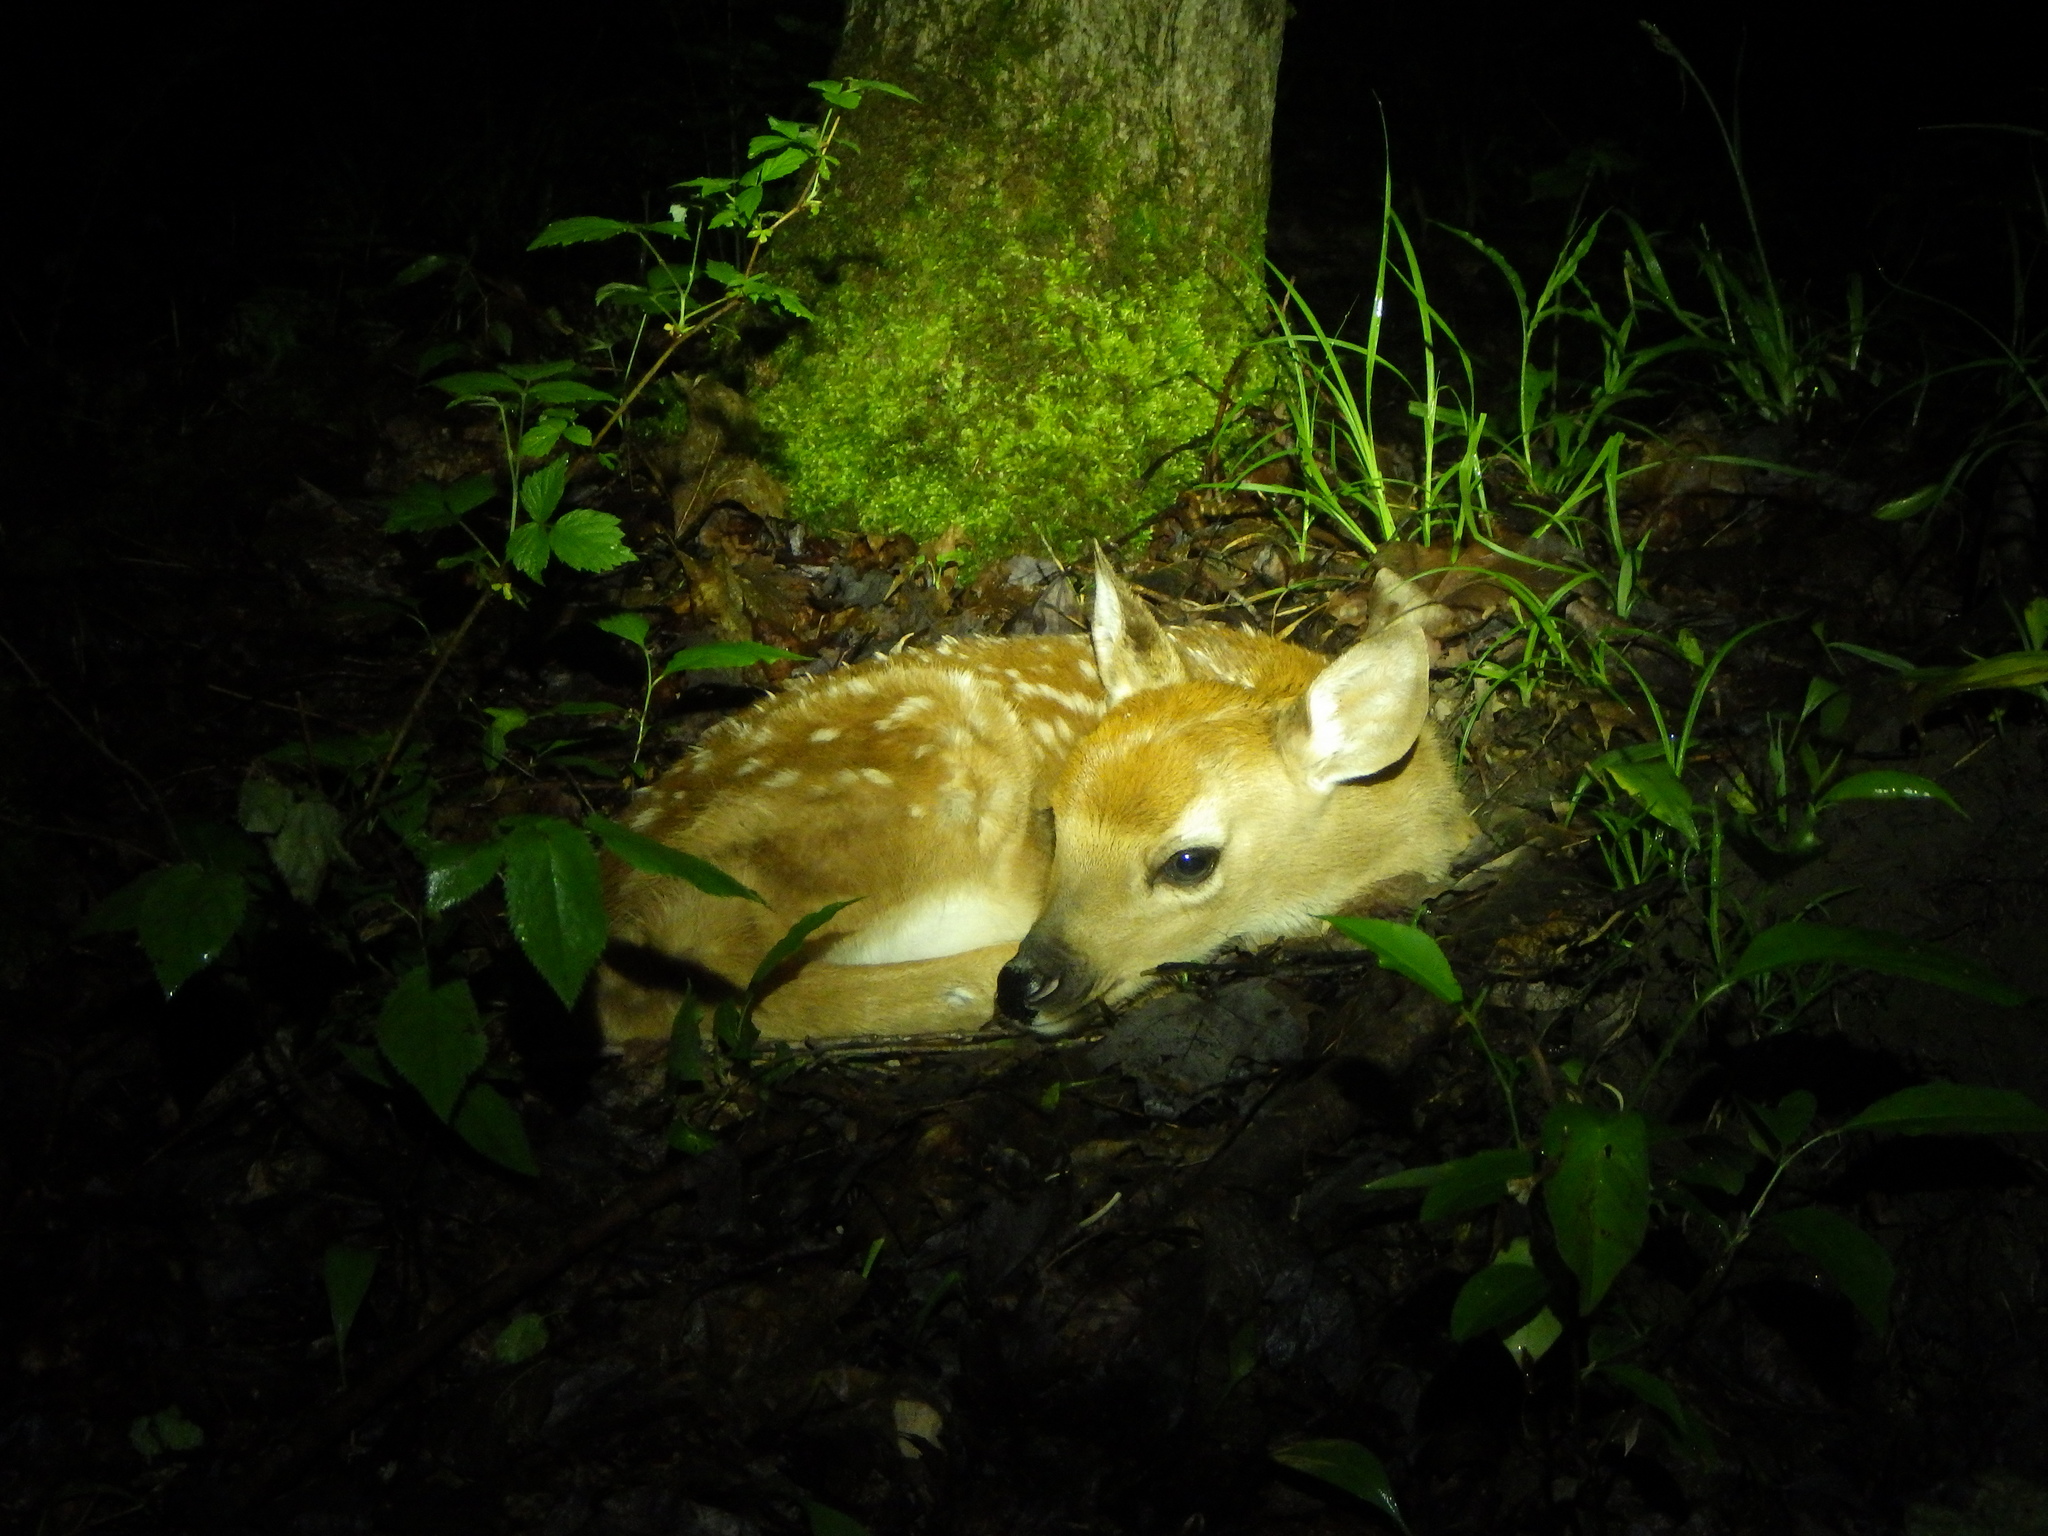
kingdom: Animalia
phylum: Chordata
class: Mammalia
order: Artiodactyla
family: Cervidae
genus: Odocoileus
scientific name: Odocoileus virginianus
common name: White-tailed deer
